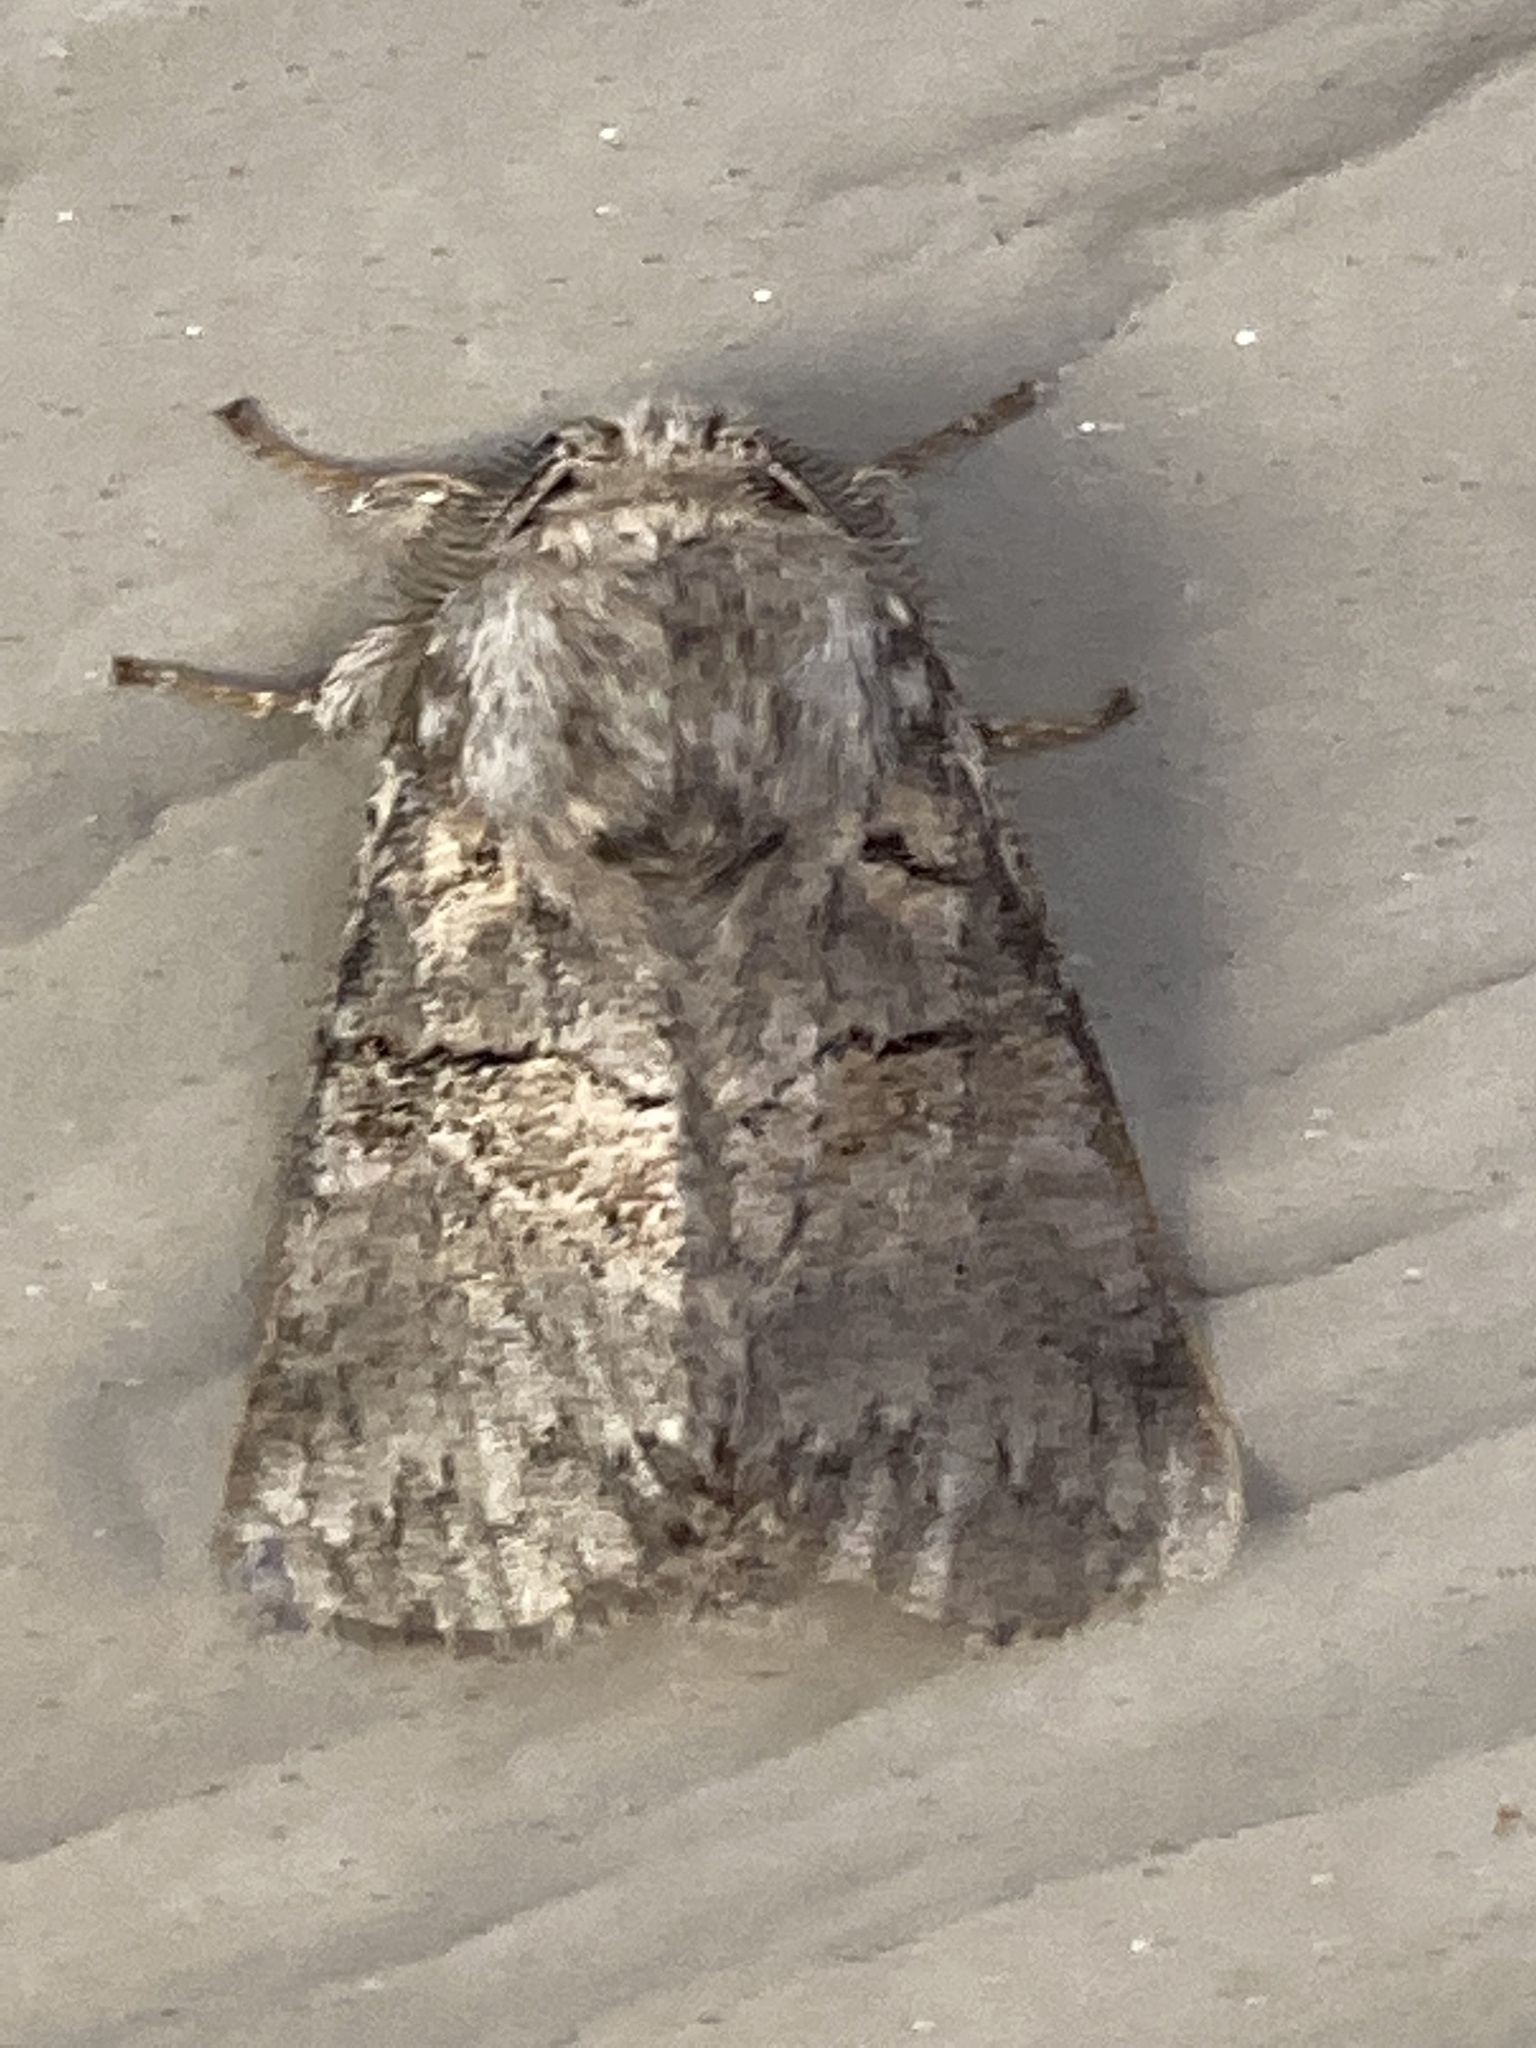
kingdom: Animalia
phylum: Arthropoda
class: Insecta
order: Lepidoptera
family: Notodontidae
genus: Gluphisia
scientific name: Gluphisia septentrionis
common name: Common gluphisia
